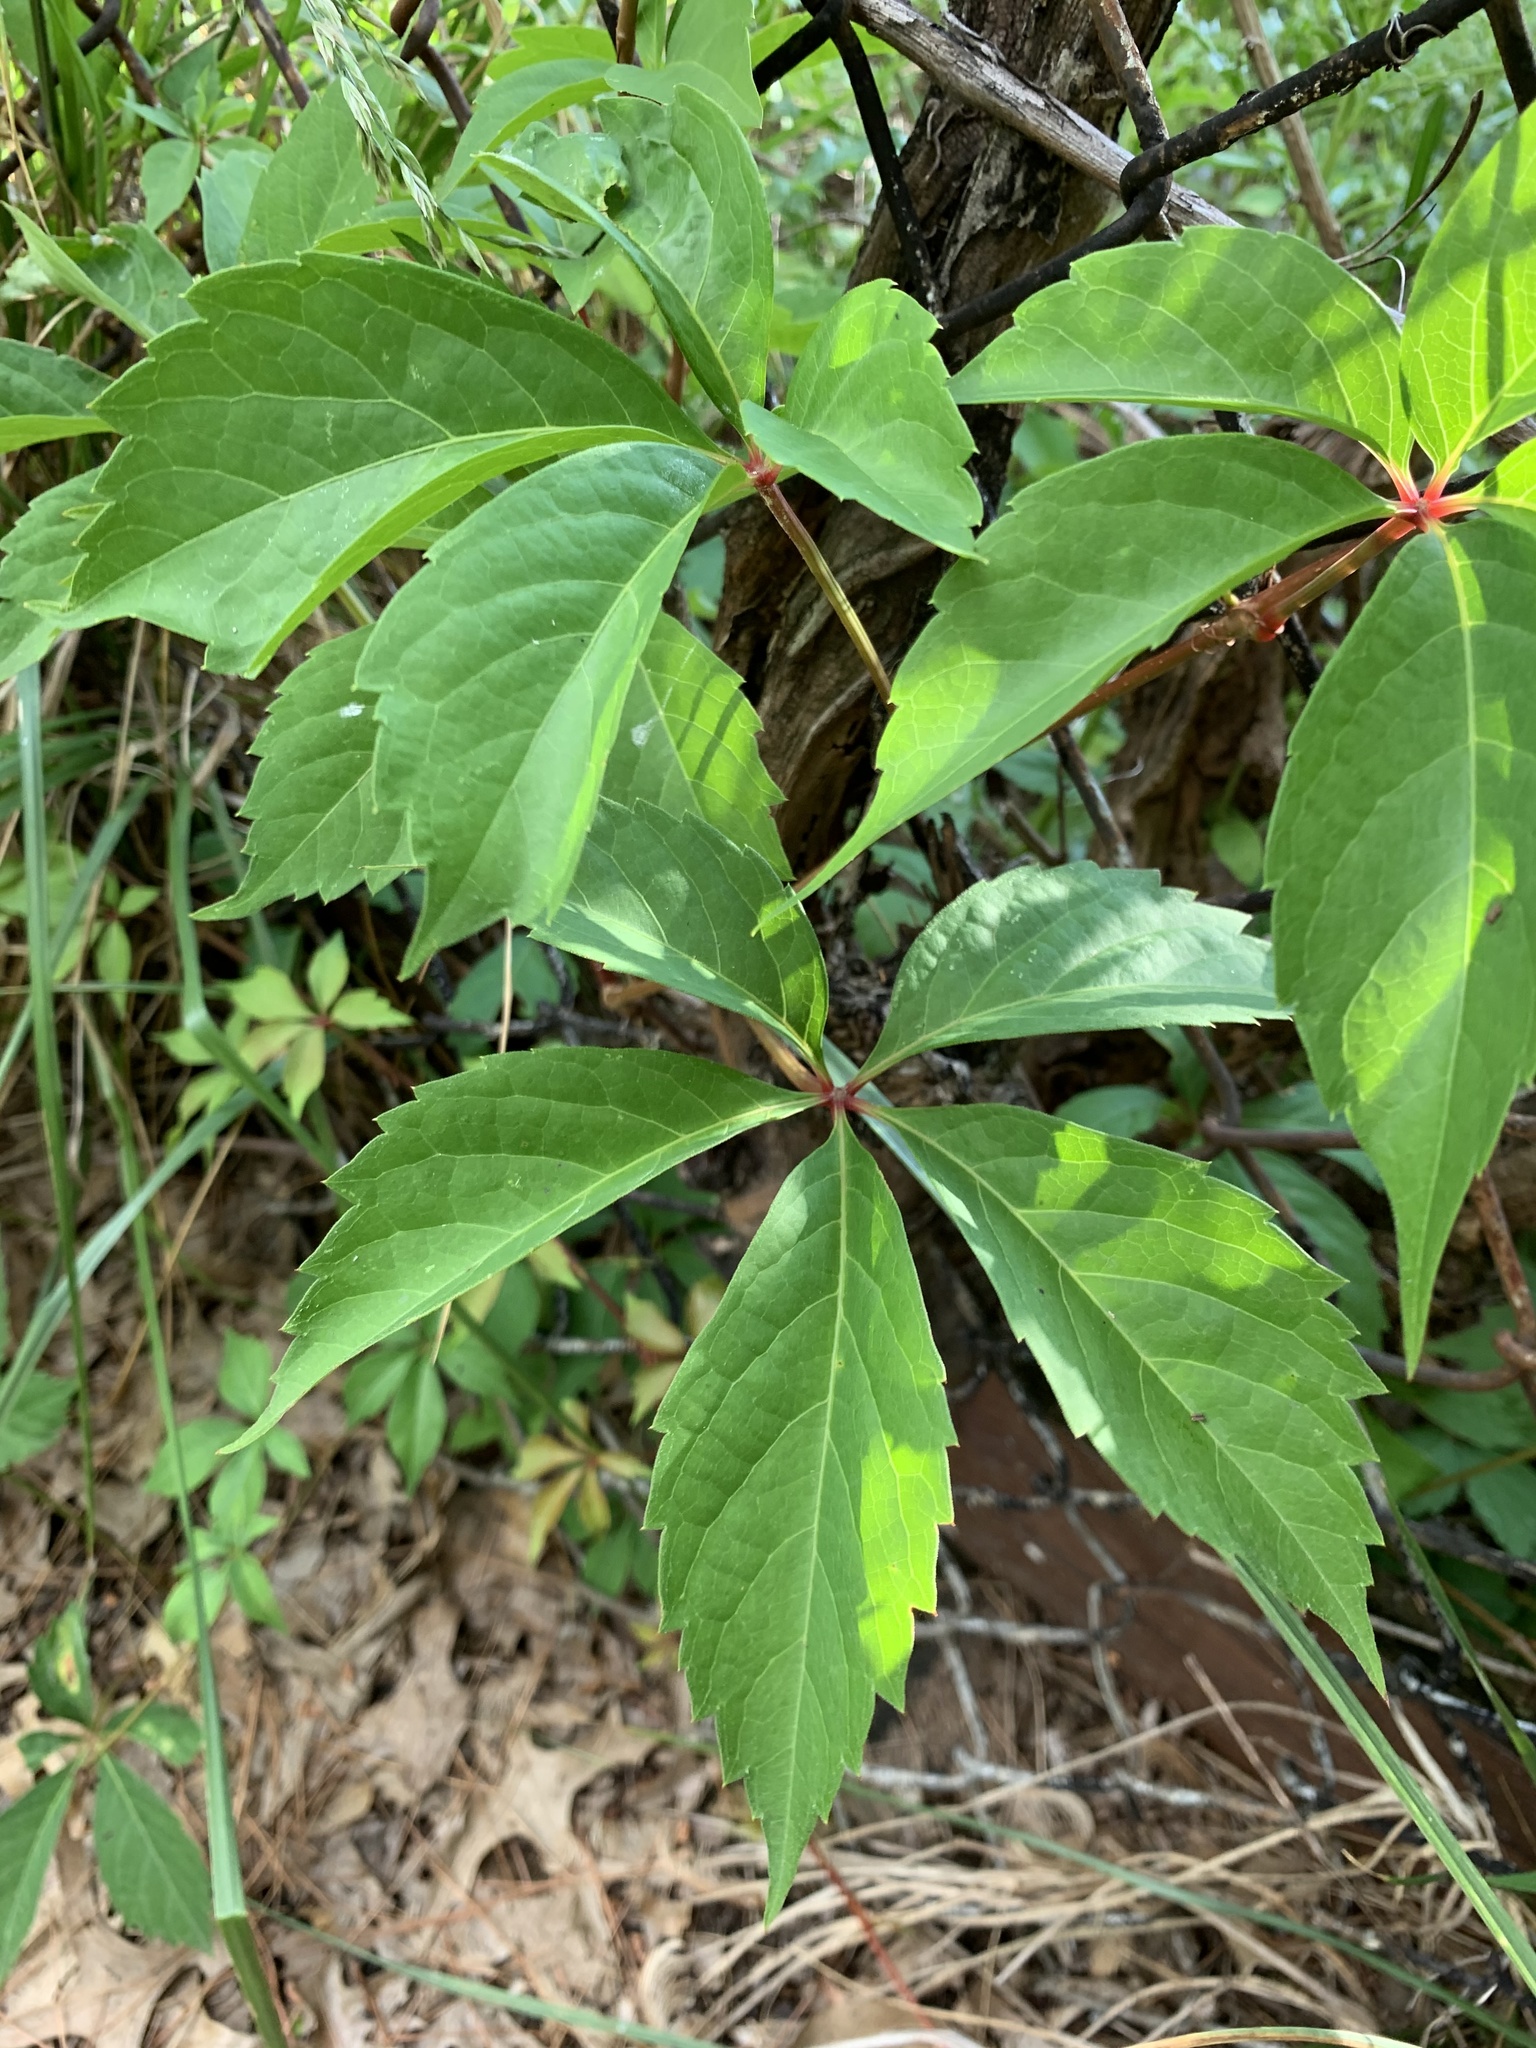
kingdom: Plantae
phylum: Tracheophyta
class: Magnoliopsida
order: Vitales
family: Vitaceae
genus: Parthenocissus
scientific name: Parthenocissus quinquefolia
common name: Virginia-creeper
